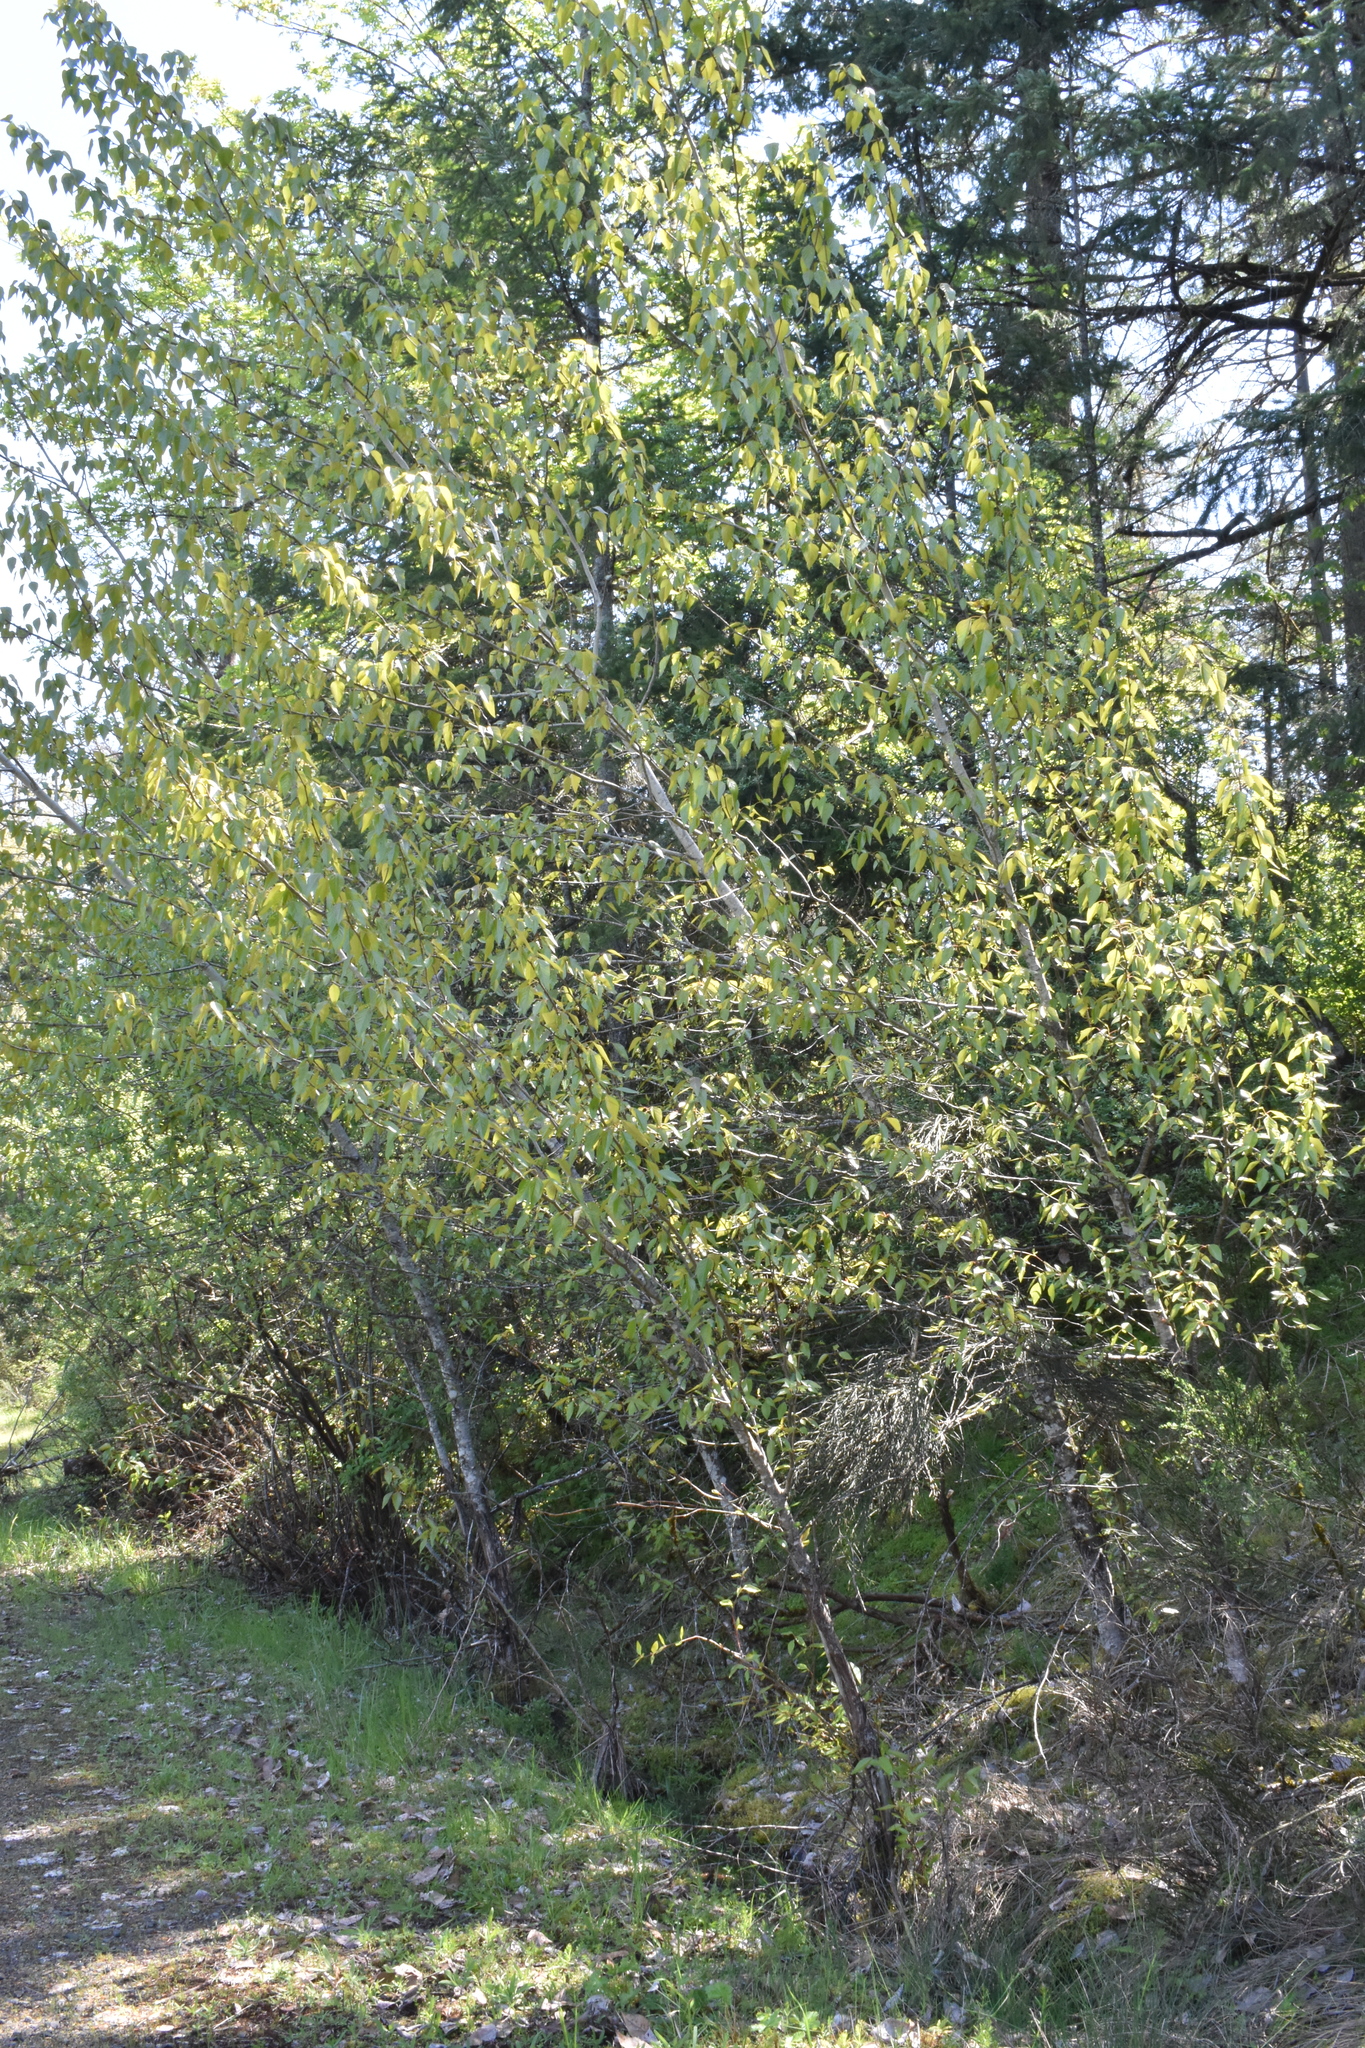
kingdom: Plantae
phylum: Tracheophyta
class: Magnoliopsida
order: Malpighiales
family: Salicaceae
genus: Populus
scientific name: Populus trichocarpa
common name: Black cottonwood
